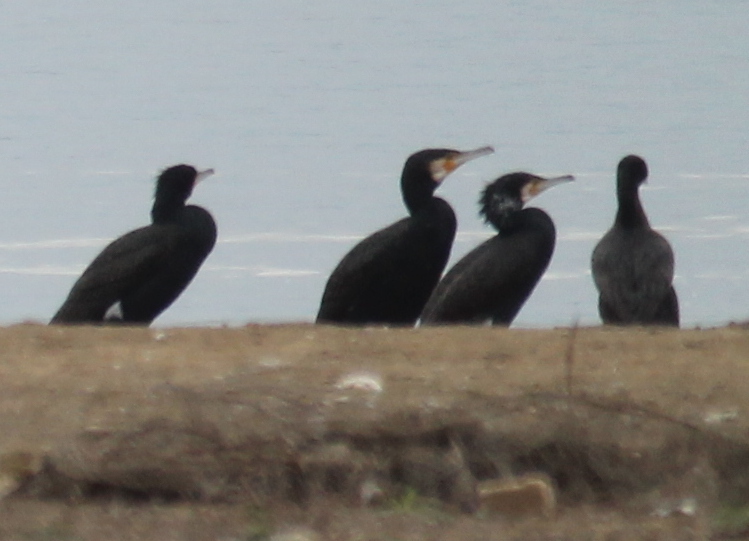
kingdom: Animalia
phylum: Chordata
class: Aves
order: Suliformes
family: Phalacrocoracidae
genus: Phalacrocorax
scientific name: Phalacrocorax carbo
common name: Great cormorant
